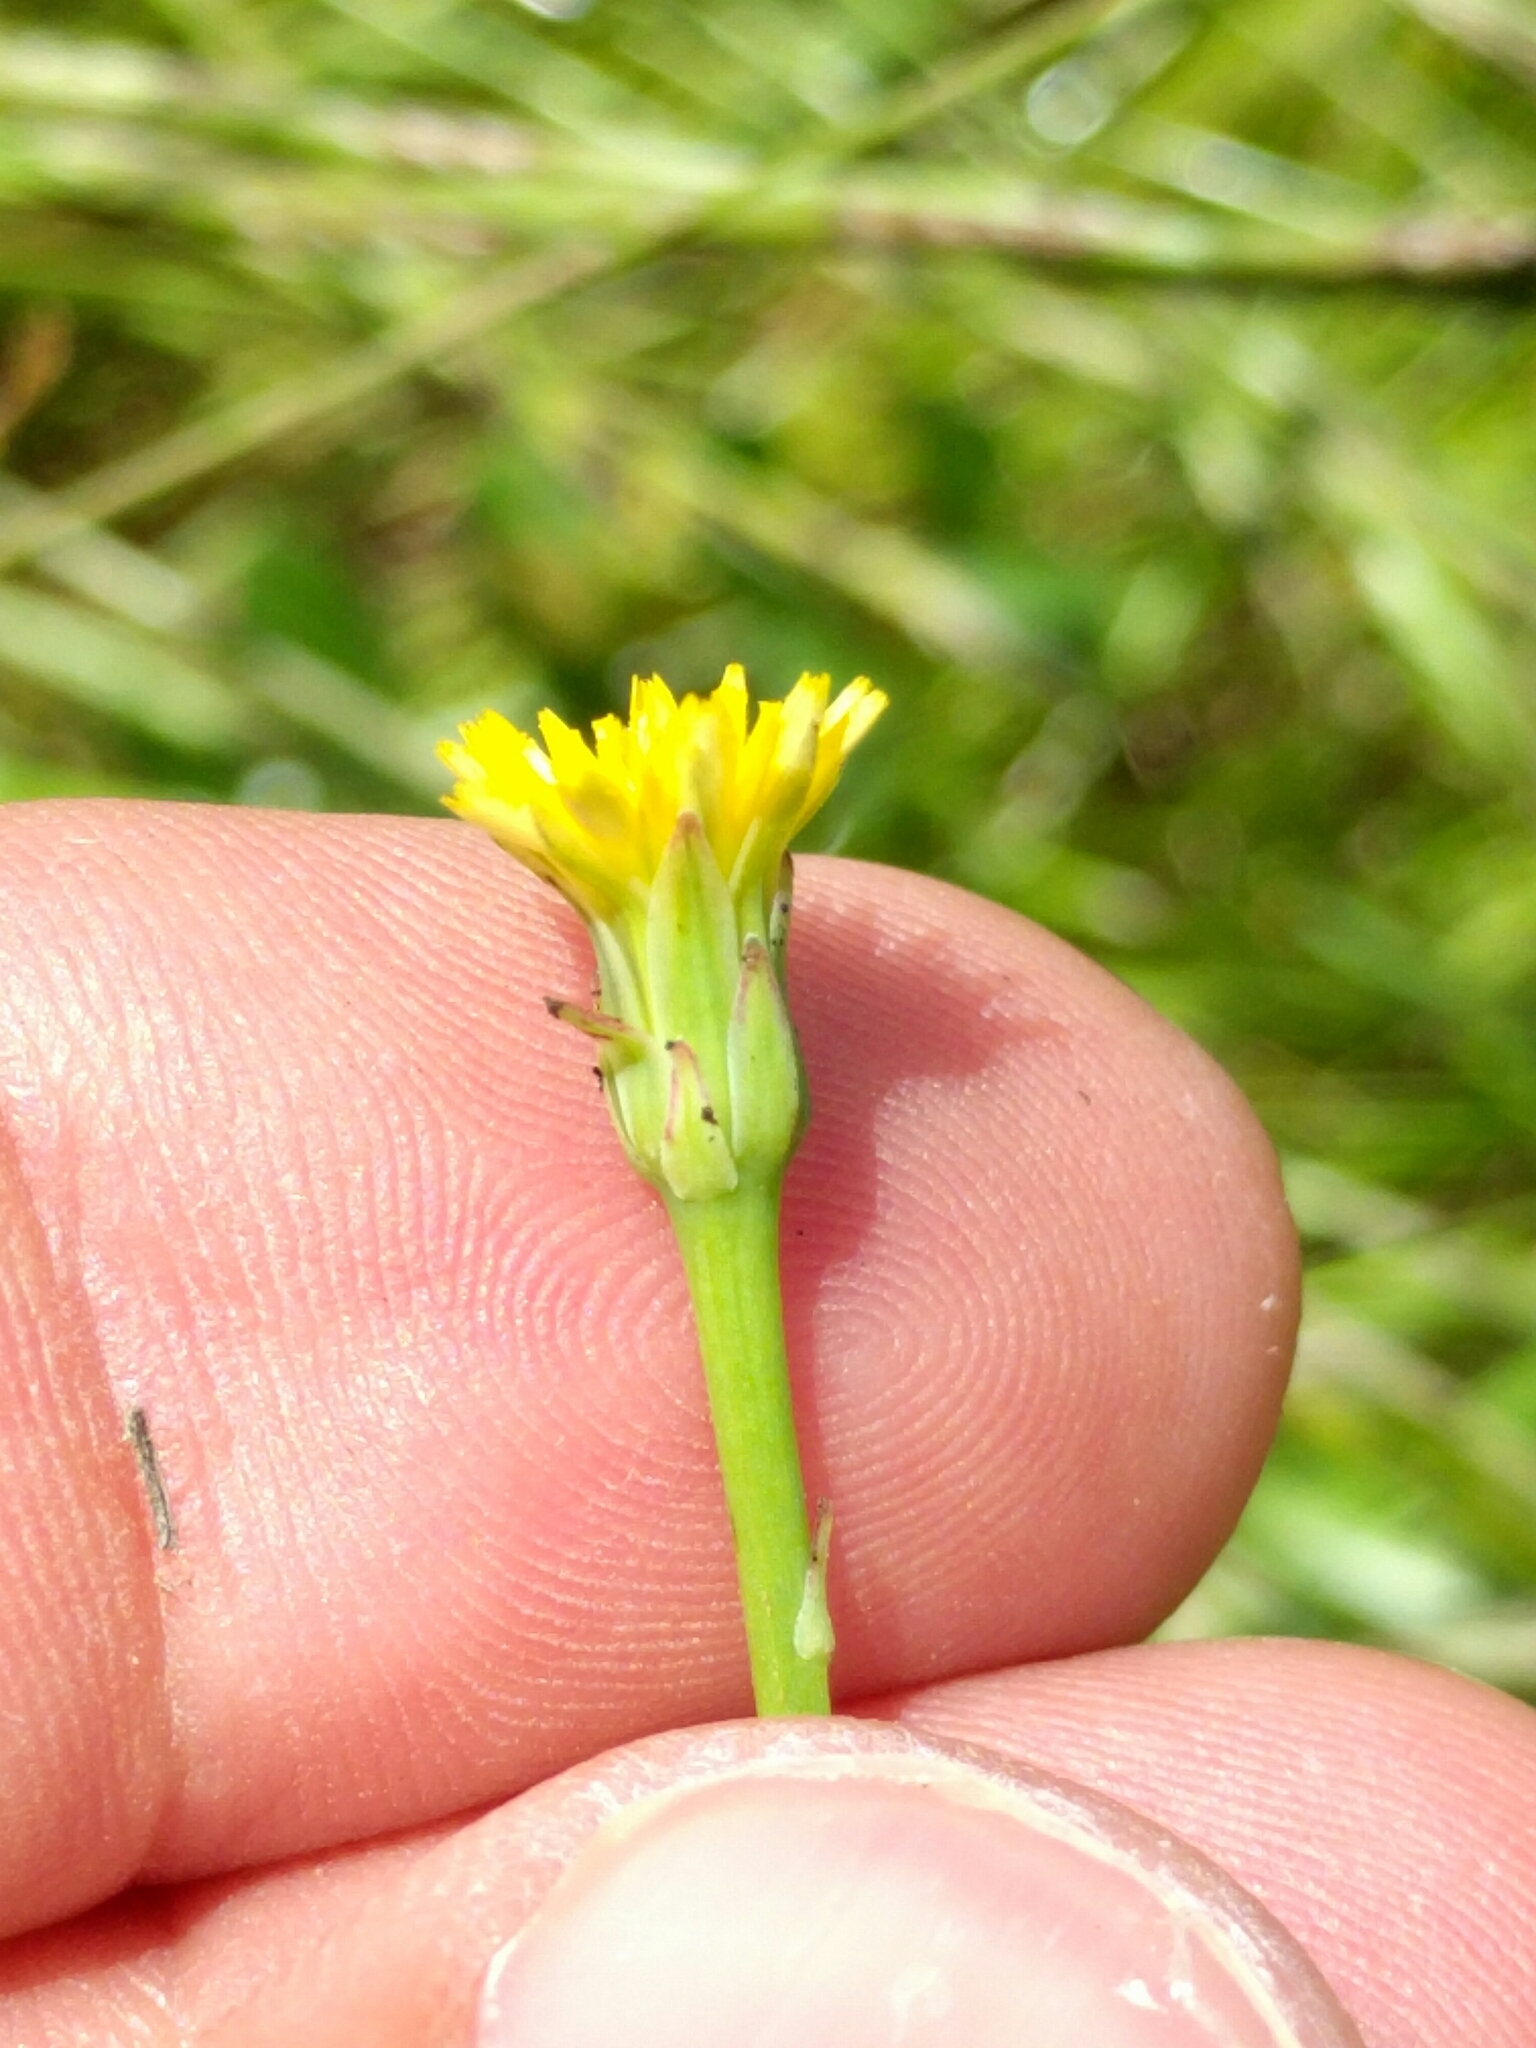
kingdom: Plantae
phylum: Tracheophyta
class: Magnoliopsida
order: Asterales
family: Asteraceae
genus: Hypochaeris
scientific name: Hypochaeris glabra
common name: Smooth catsear
